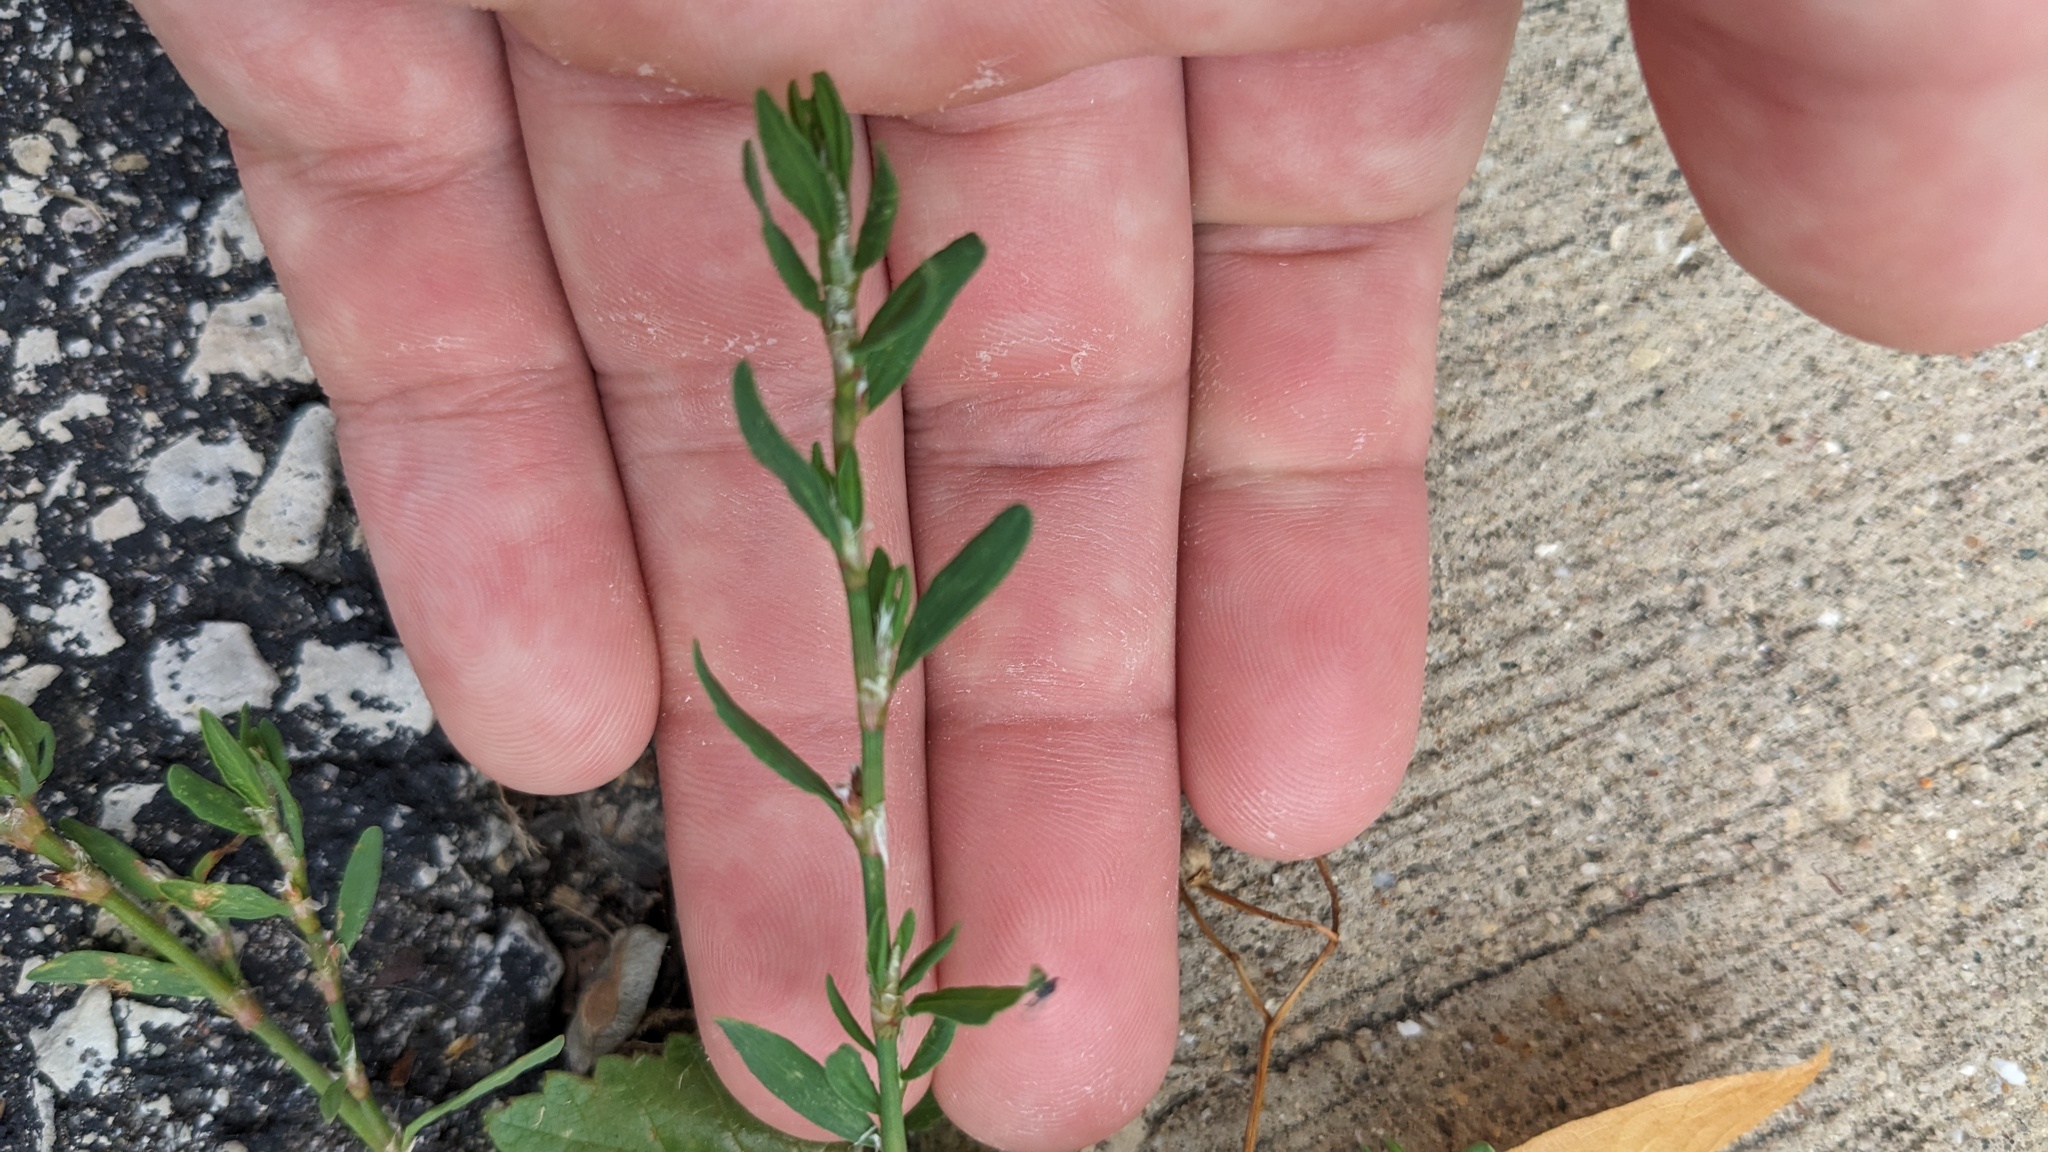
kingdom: Plantae
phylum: Tracheophyta
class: Magnoliopsida
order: Caryophyllales
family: Polygonaceae
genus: Polygonum
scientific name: Polygonum aviculare
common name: Prostrate knotweed
